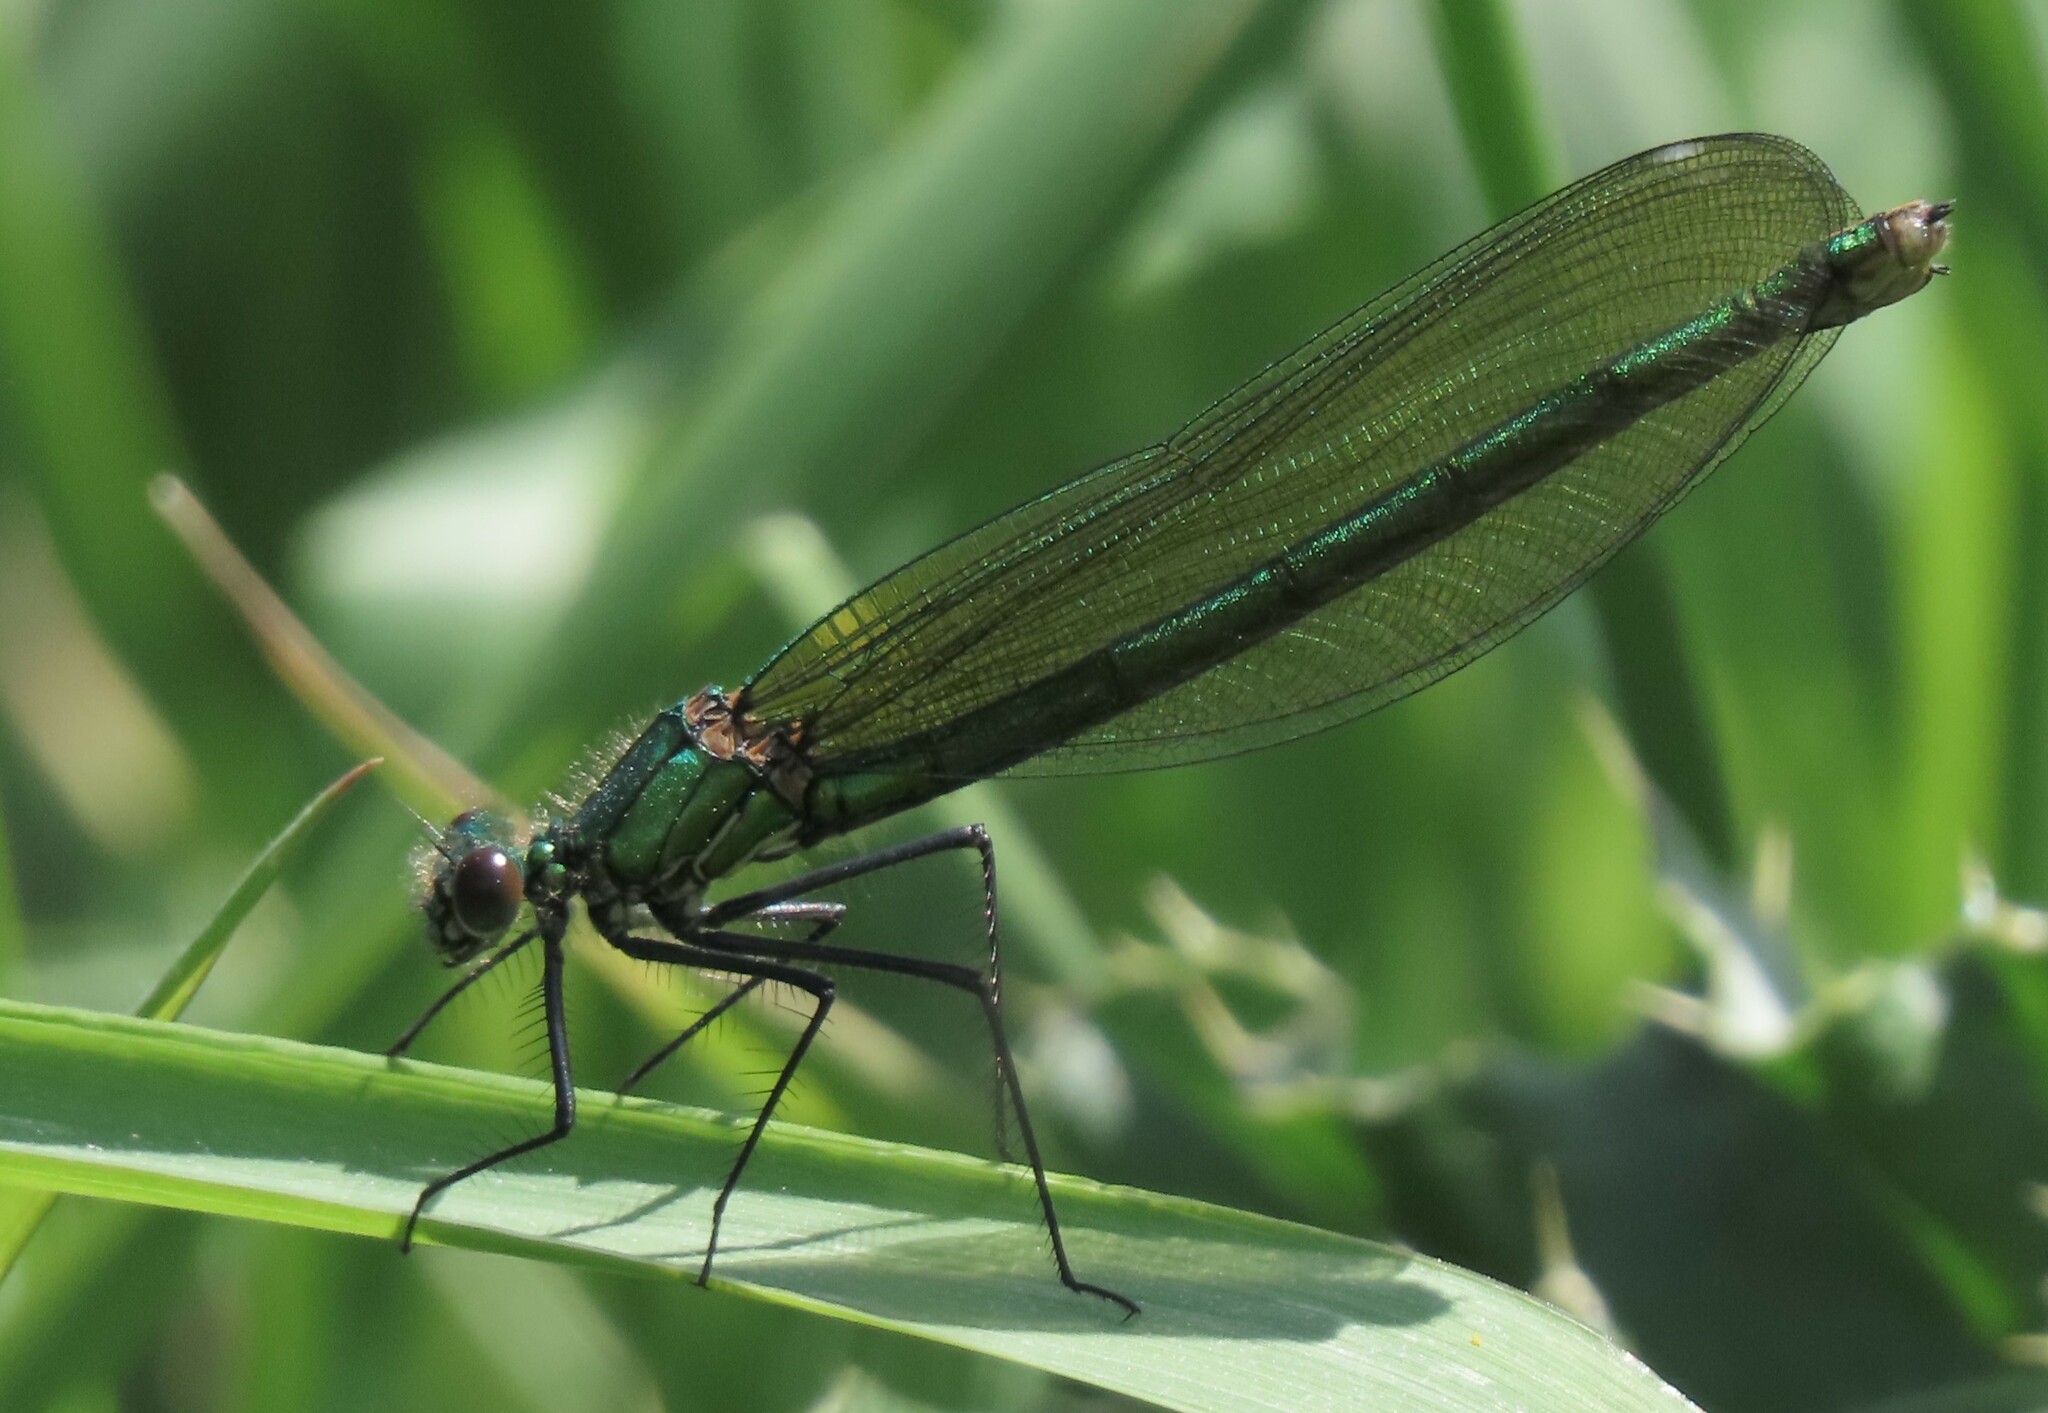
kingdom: Animalia
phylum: Arthropoda
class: Insecta
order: Odonata
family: Calopterygidae
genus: Calopteryx
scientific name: Calopteryx splendens
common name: Banded demoiselle
